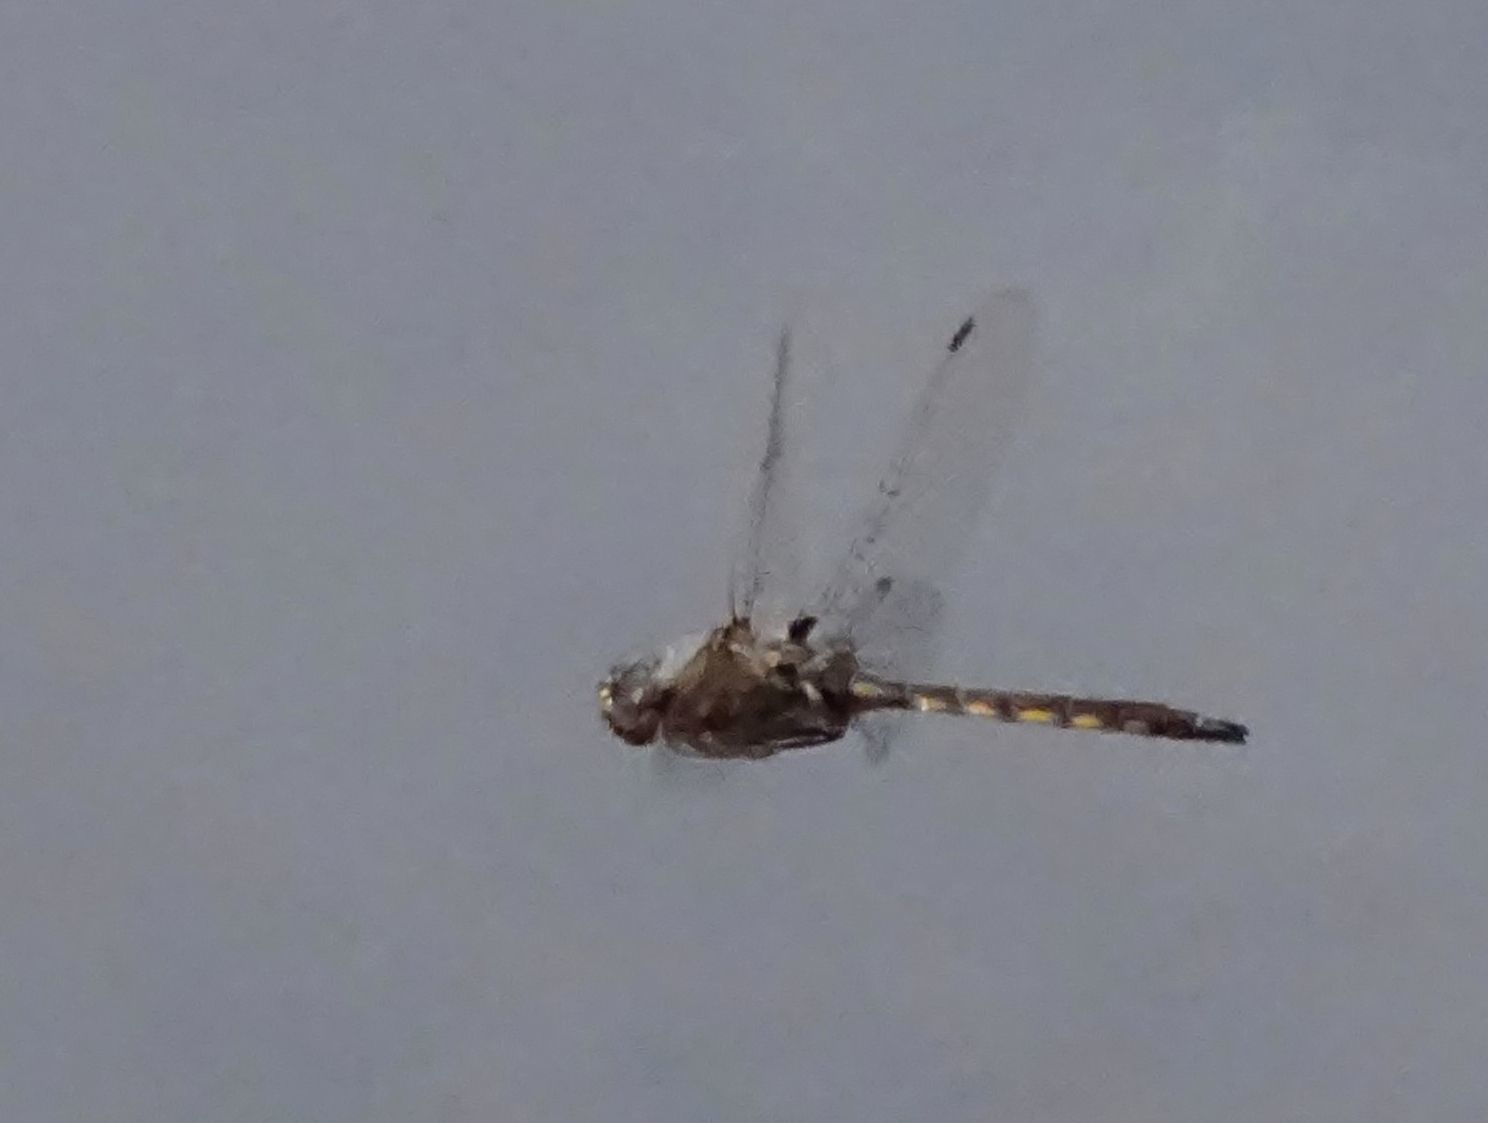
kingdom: Animalia
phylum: Arthropoda
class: Insecta
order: Odonata
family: Corduliidae
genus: Epitheca
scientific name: Epitheca canis
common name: Beaverpond baskettail
